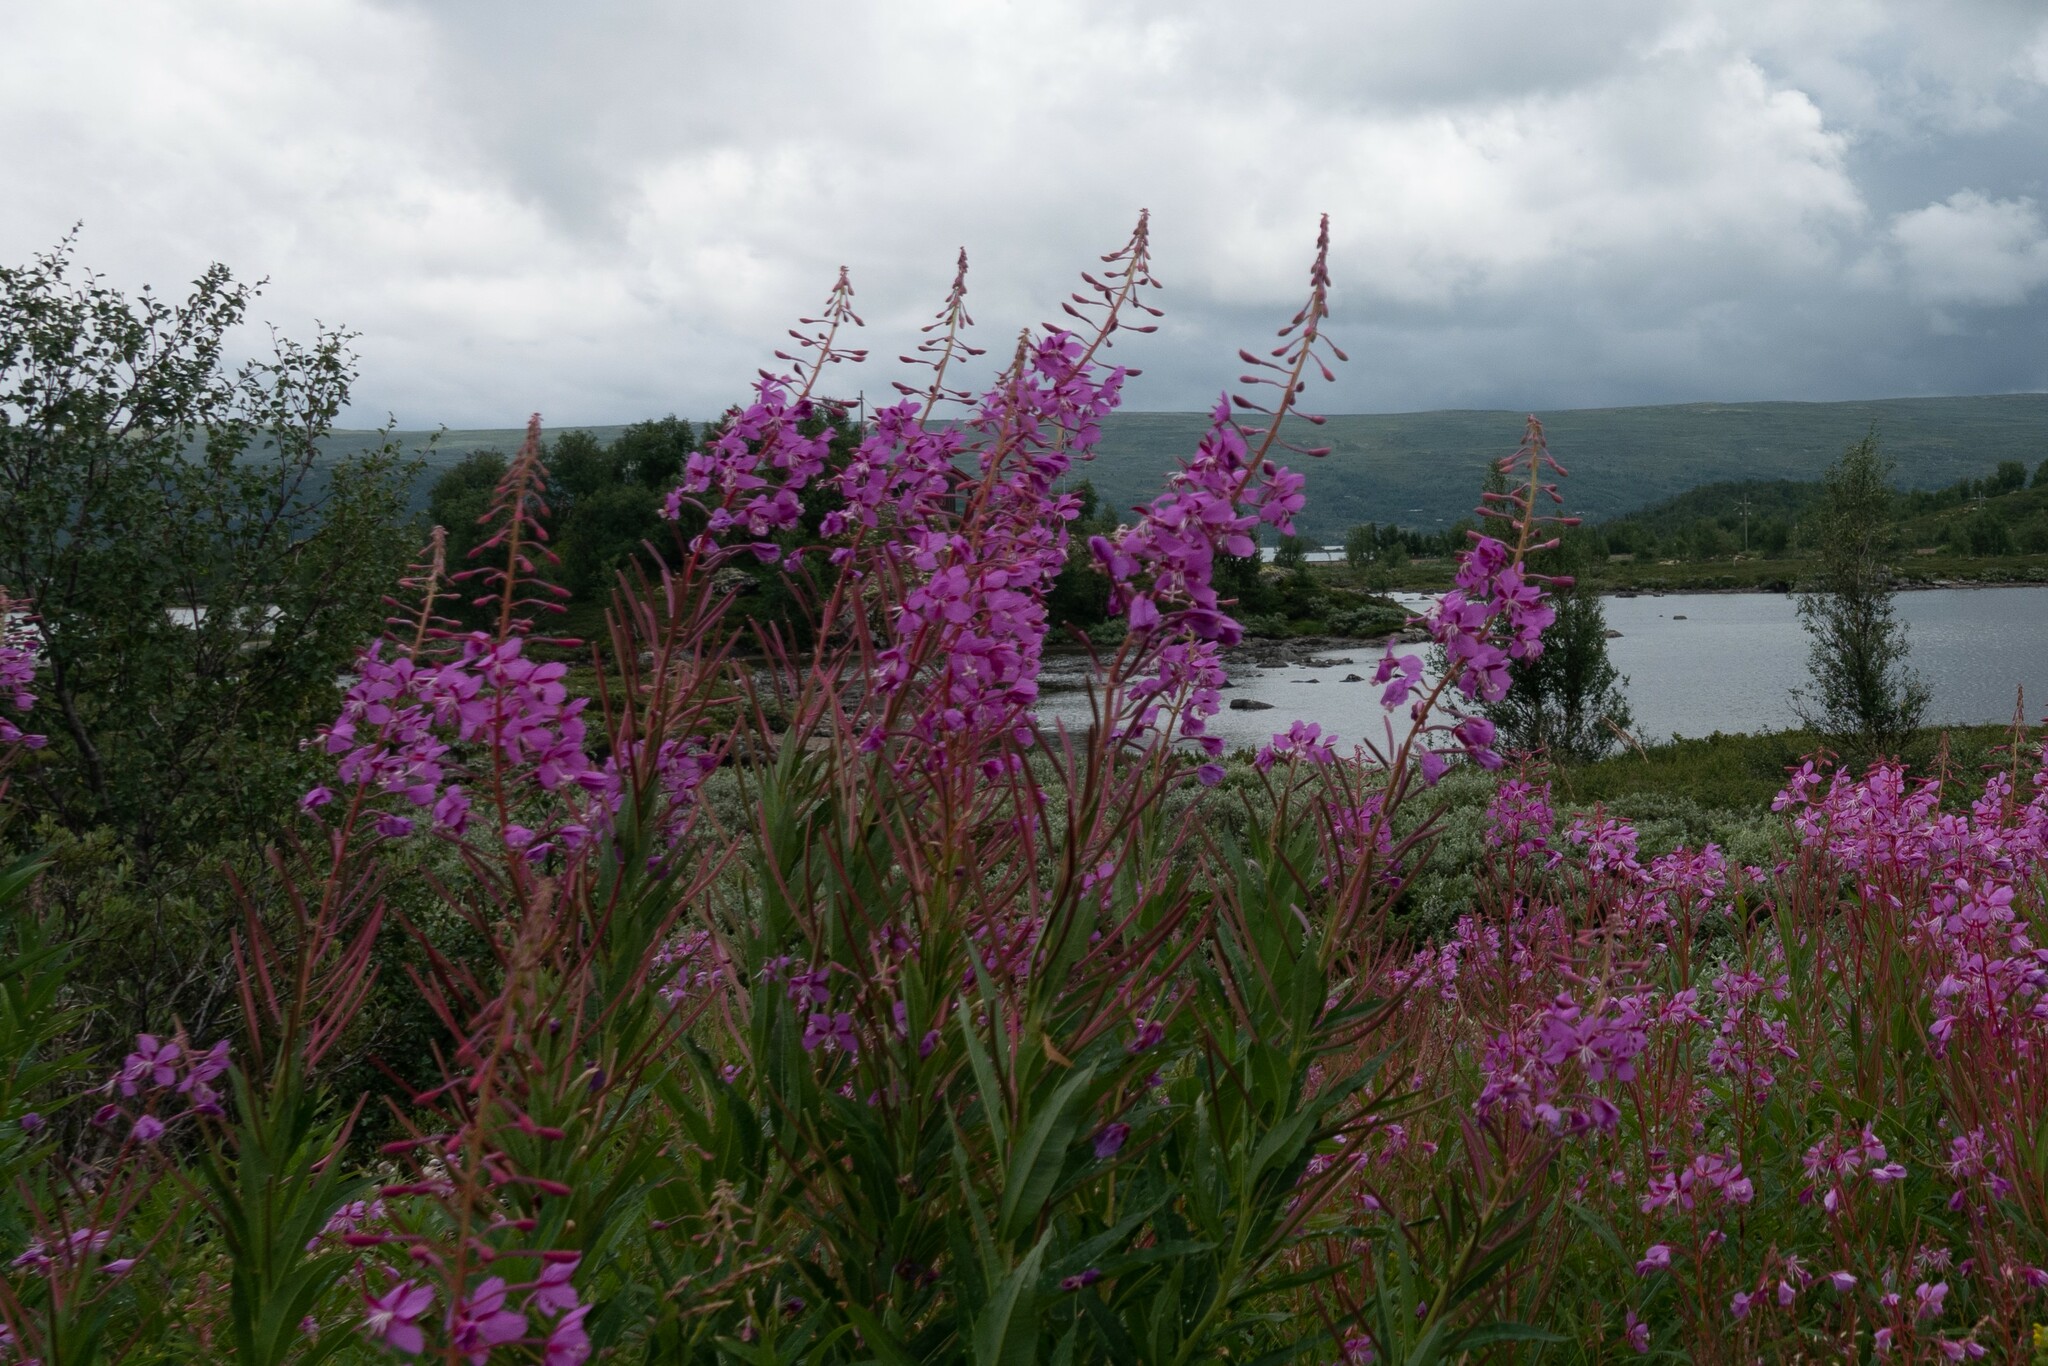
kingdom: Plantae
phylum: Tracheophyta
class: Magnoliopsida
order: Myrtales
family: Onagraceae
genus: Chamaenerion
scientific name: Chamaenerion angustifolium
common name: Fireweed
